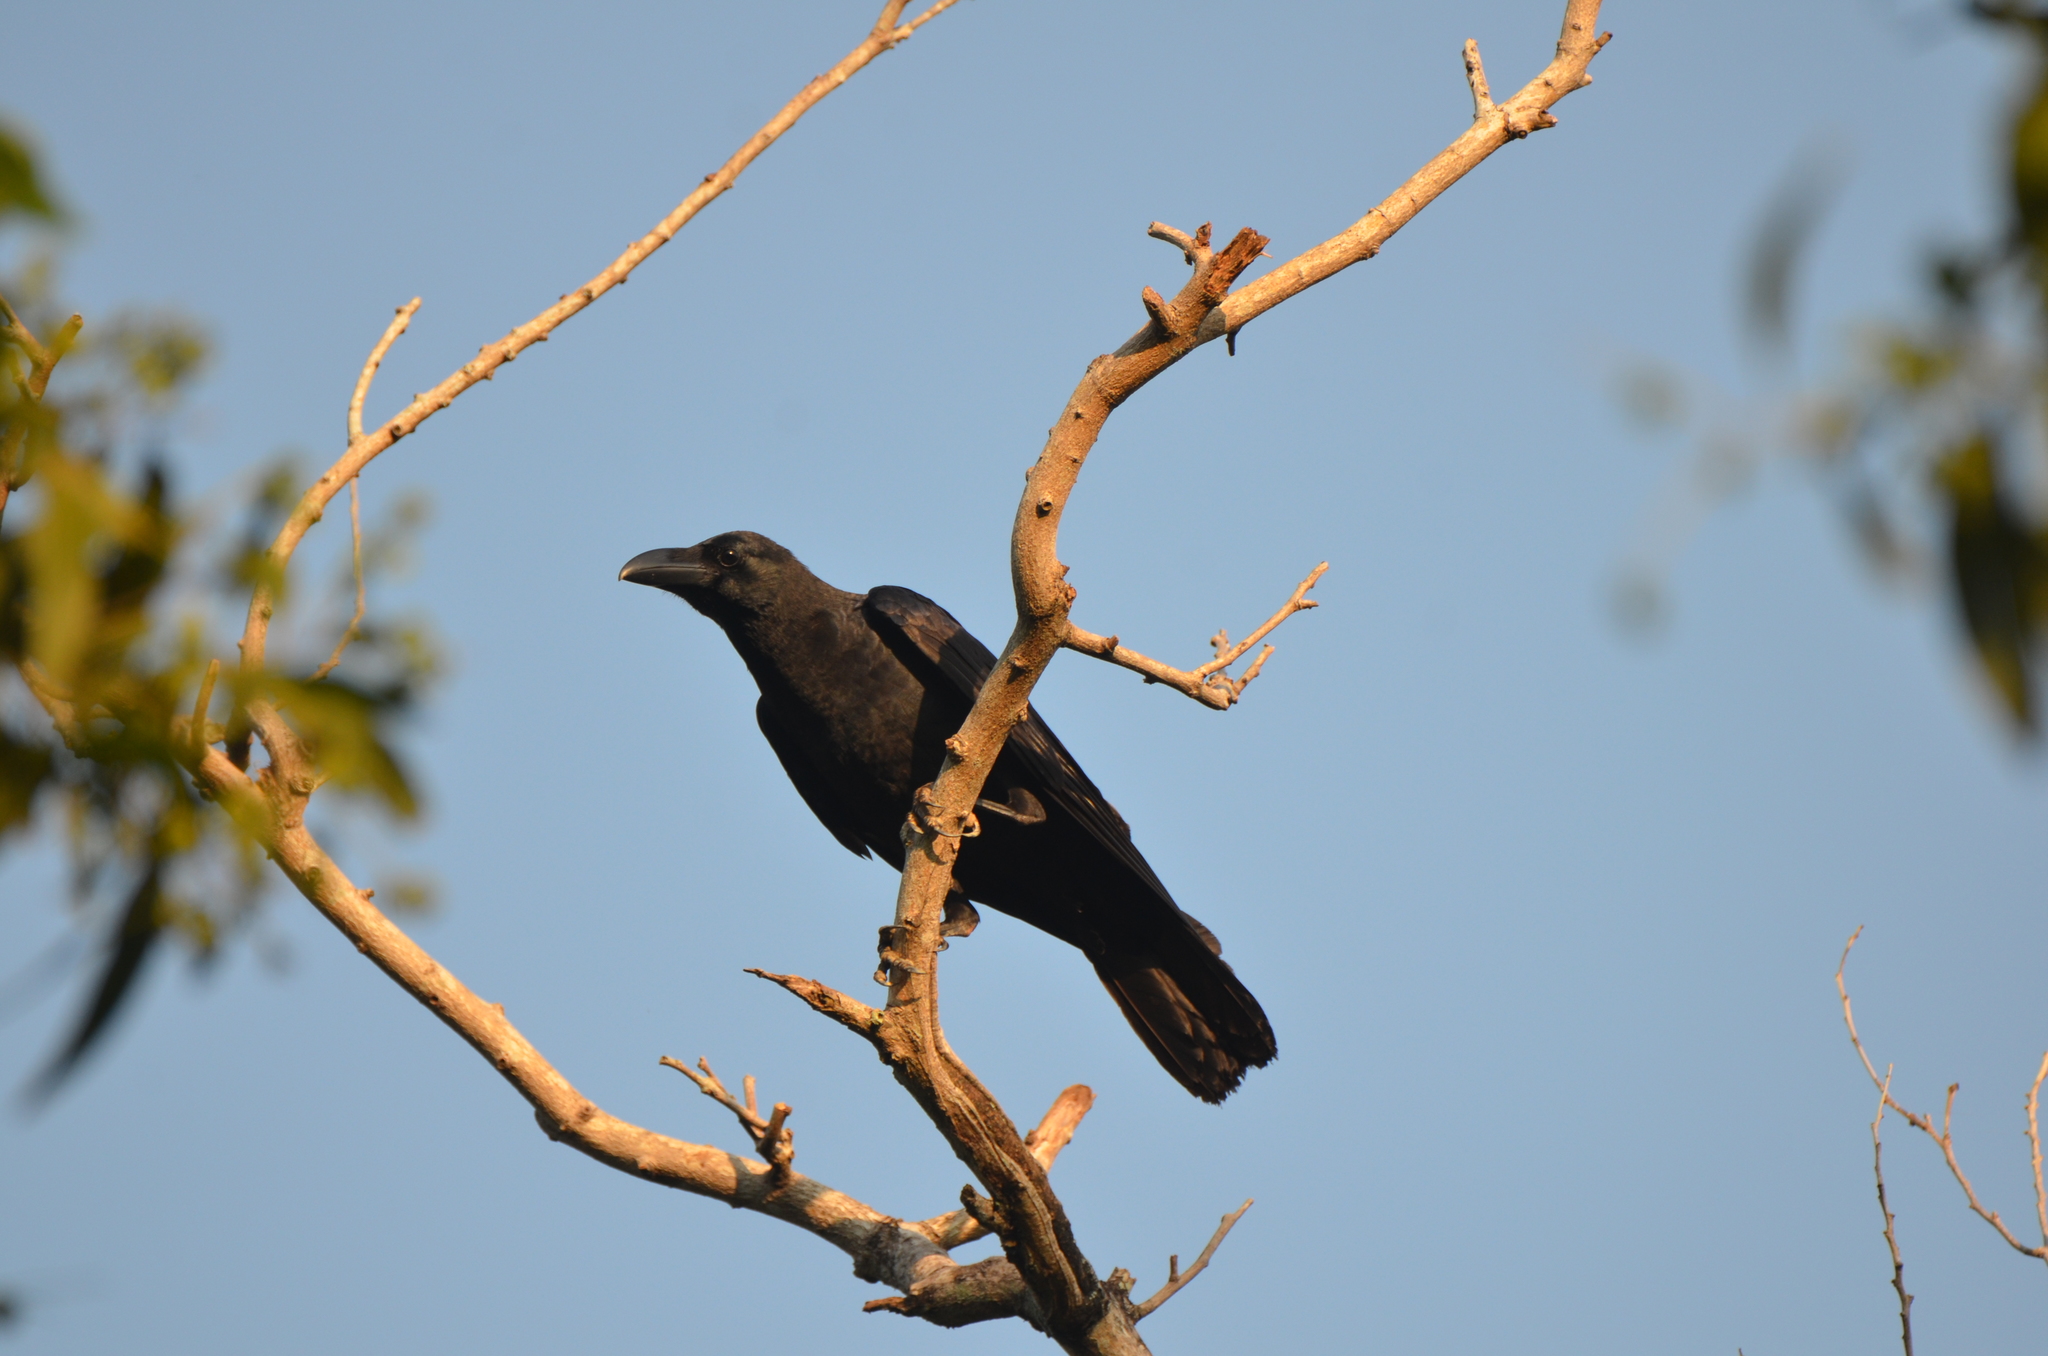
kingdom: Animalia
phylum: Chordata
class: Aves
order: Passeriformes
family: Corvidae
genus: Corvus
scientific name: Corvus macrorhynchos
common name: Large-billed crow
